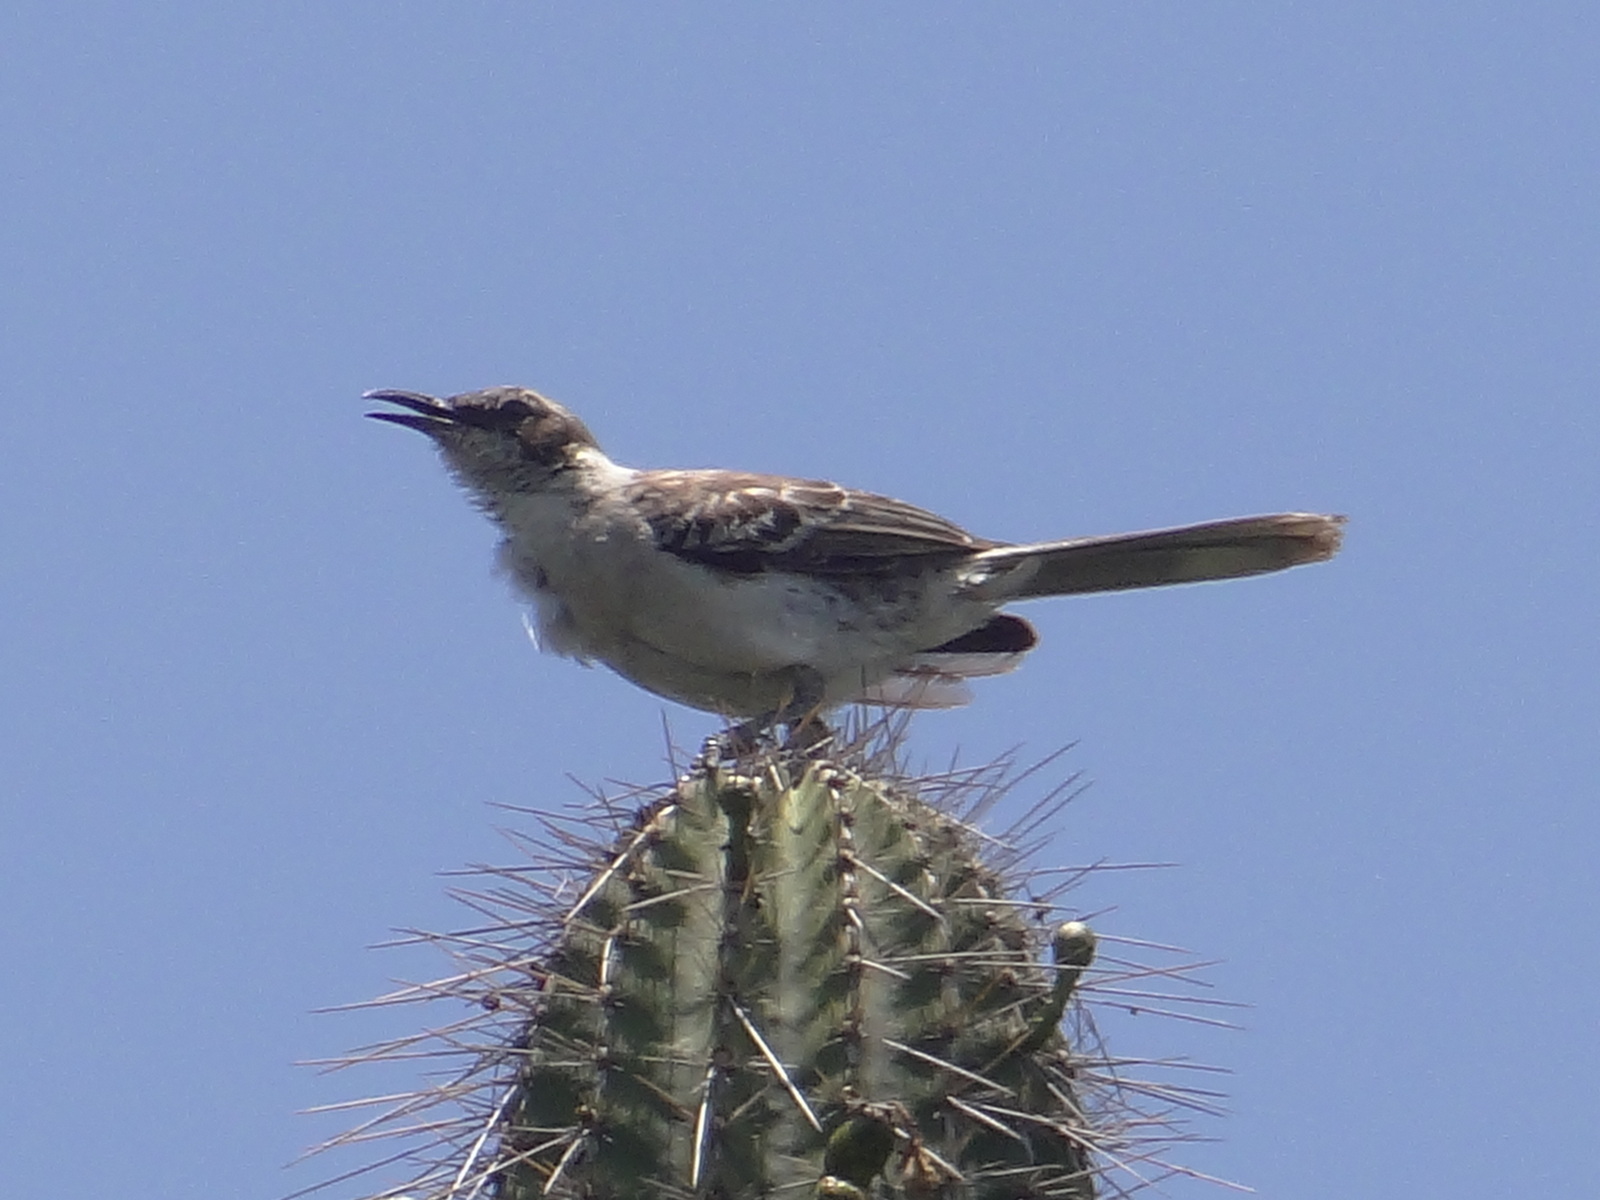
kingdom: Animalia
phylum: Chordata
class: Aves
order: Passeriformes
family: Mimidae
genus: Mimus
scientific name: Mimus parvulus
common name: Galapagos mockingbird
